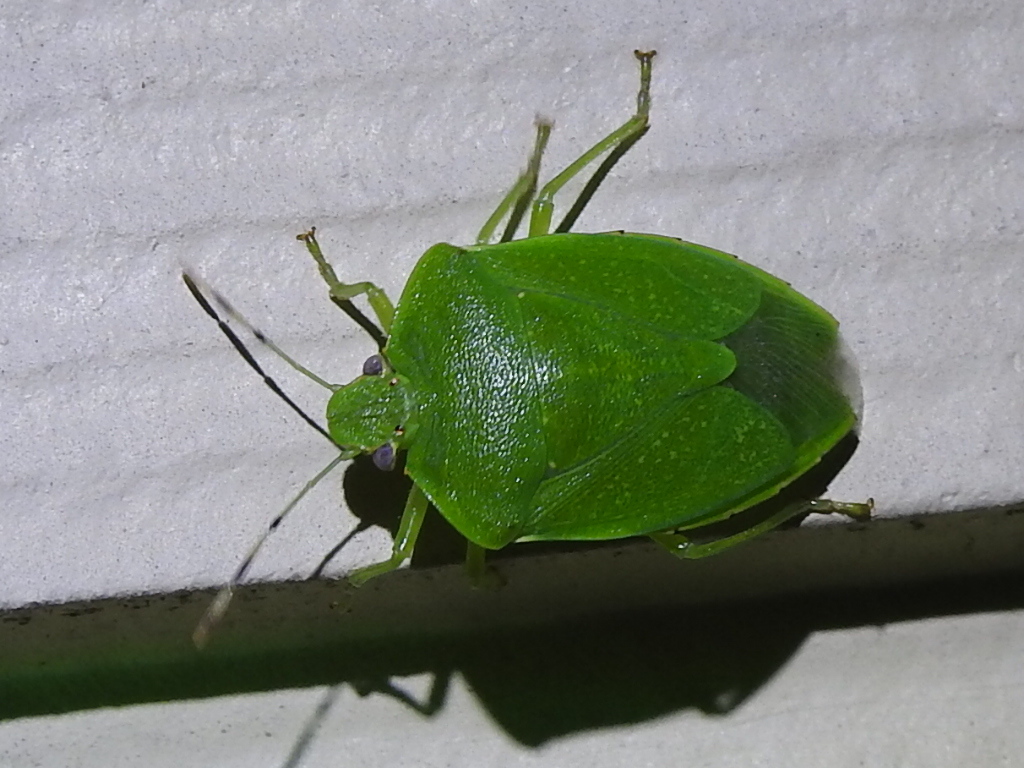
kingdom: Animalia
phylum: Arthropoda
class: Insecta
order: Hemiptera
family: Pentatomidae
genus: Chinavia
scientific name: Chinavia hilaris
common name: Green stink bug
